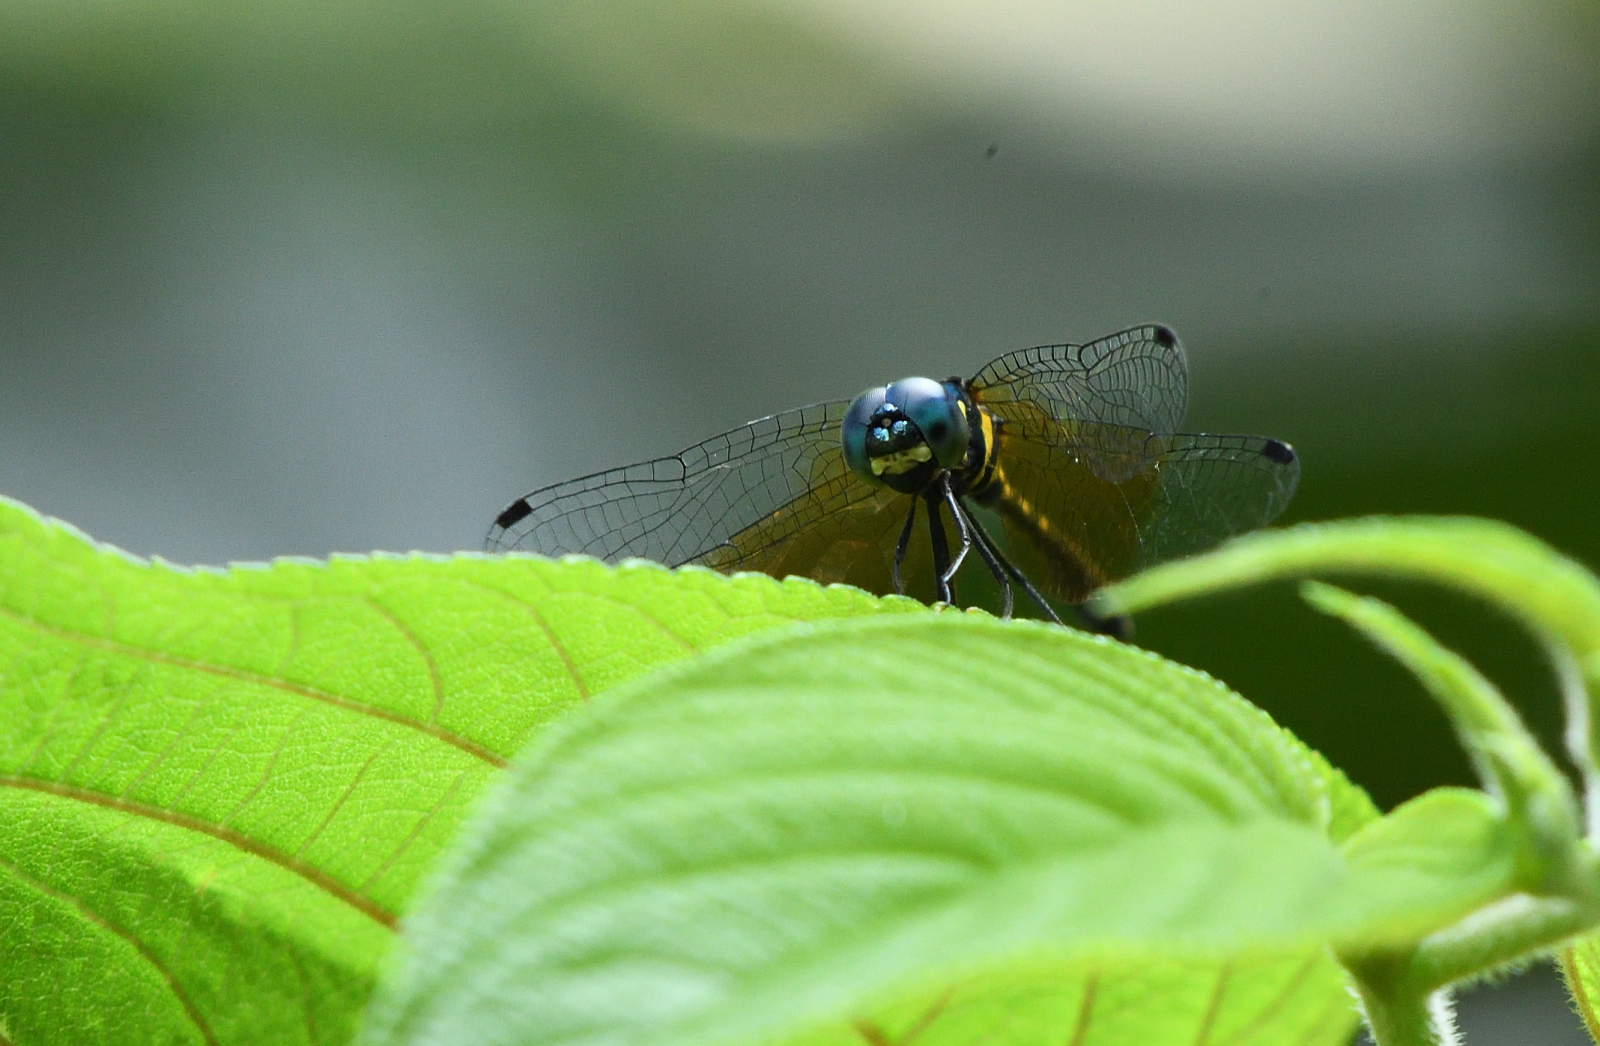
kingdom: Animalia
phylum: Arthropoda
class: Insecta
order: Odonata
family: Libellulidae
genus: Tetrathemis
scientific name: Tetrathemis platyptera
